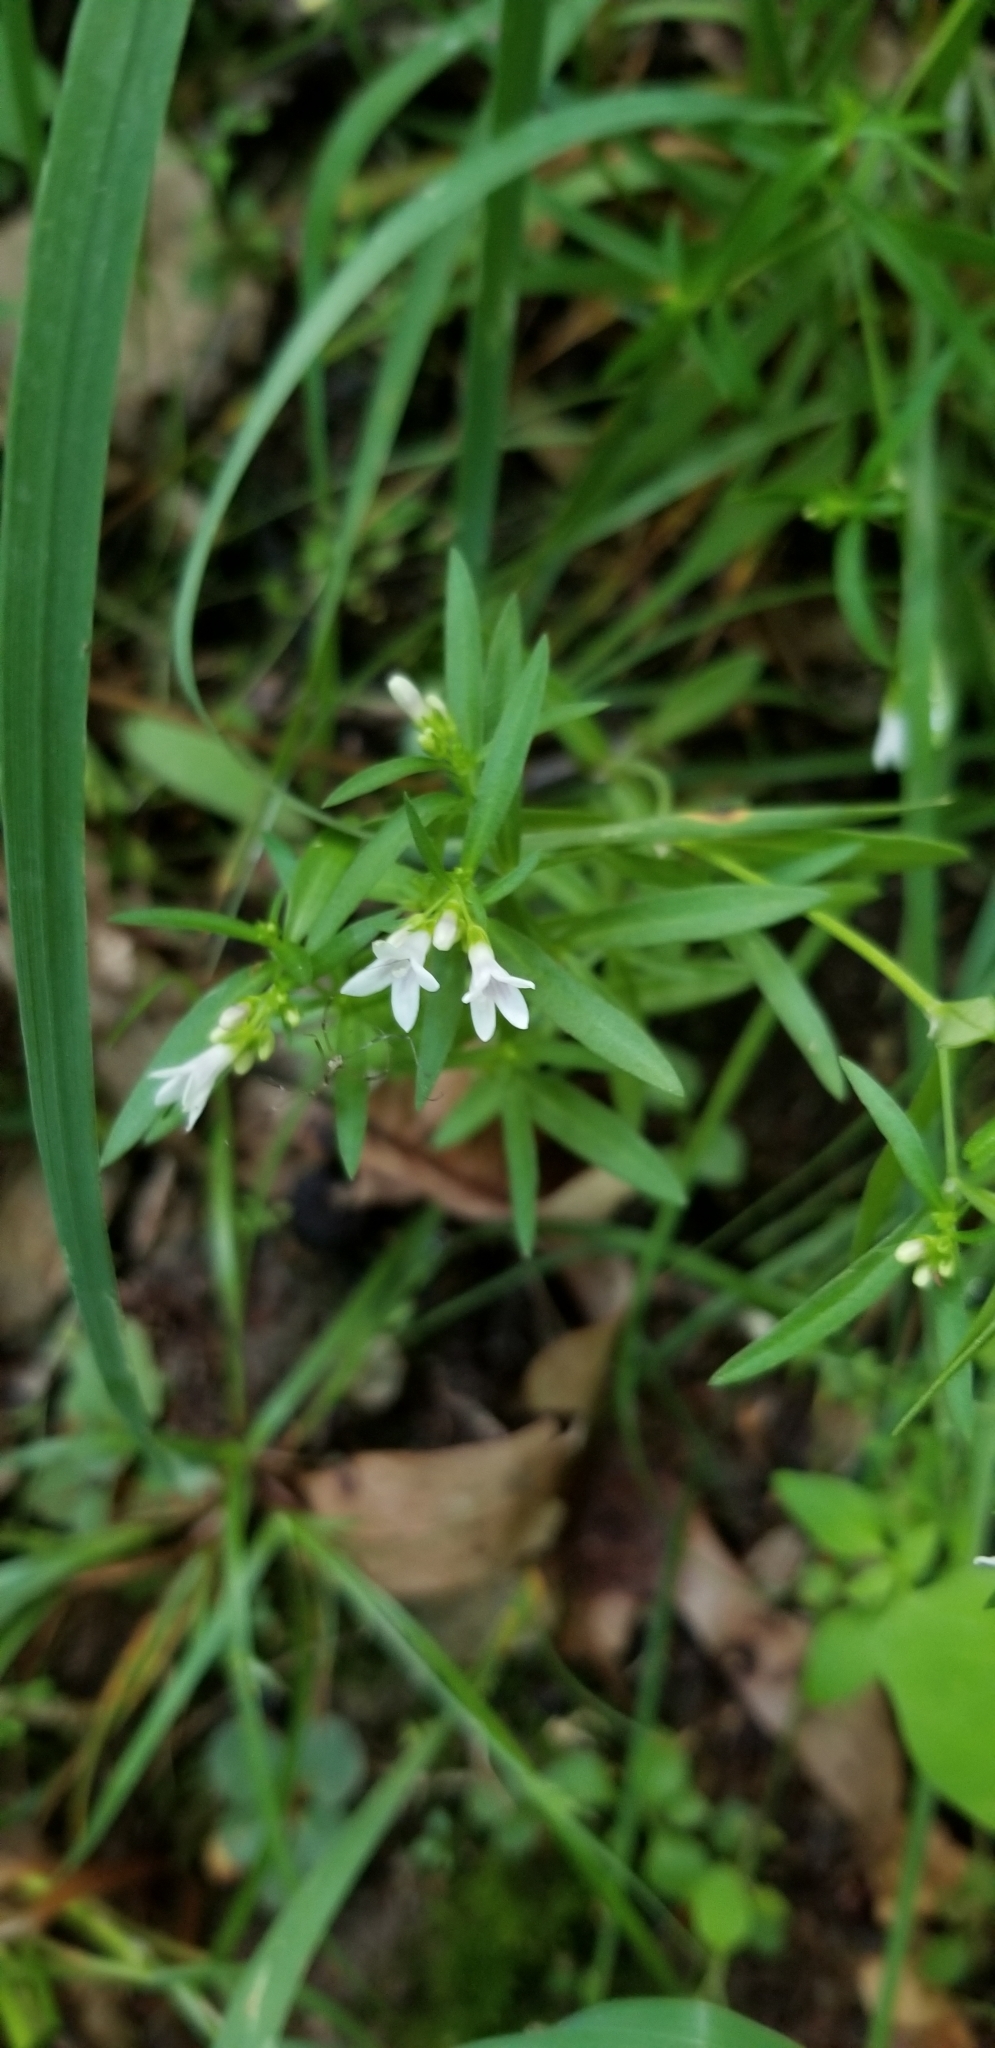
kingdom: Plantae
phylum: Tracheophyta
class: Magnoliopsida
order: Gentianales
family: Rubiaceae
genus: Houstonia
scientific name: Houstonia longifolia
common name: Long-leaved bluets
